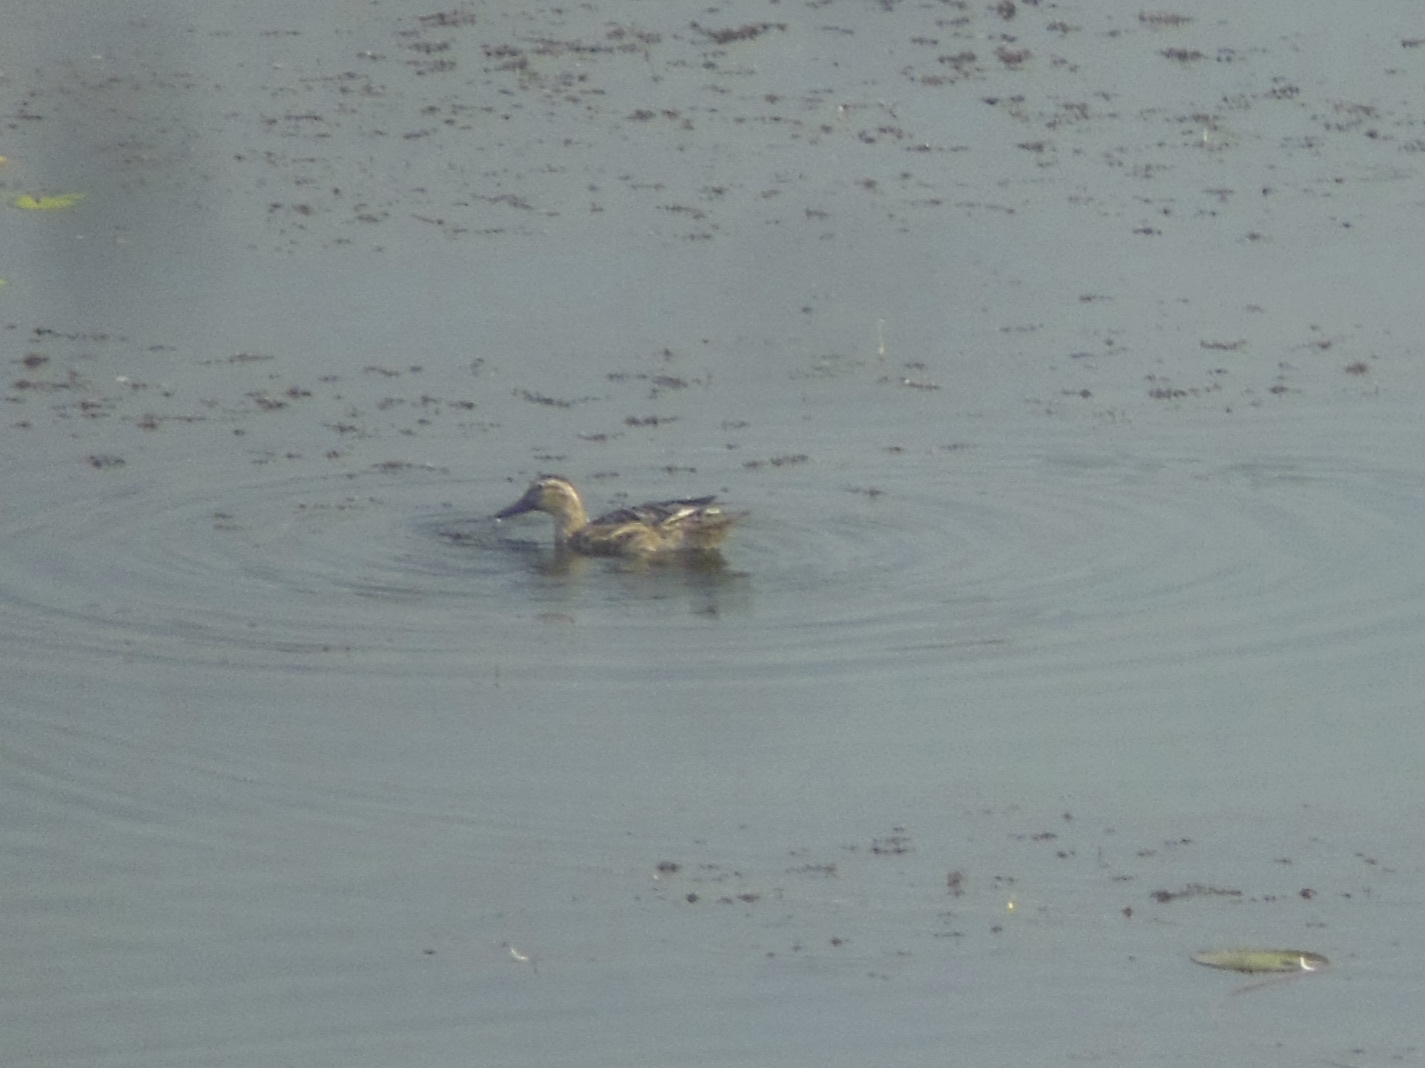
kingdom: Animalia
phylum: Chordata
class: Aves
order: Anseriformes
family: Anatidae
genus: Spatula
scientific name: Spatula querquedula
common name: Garganey
